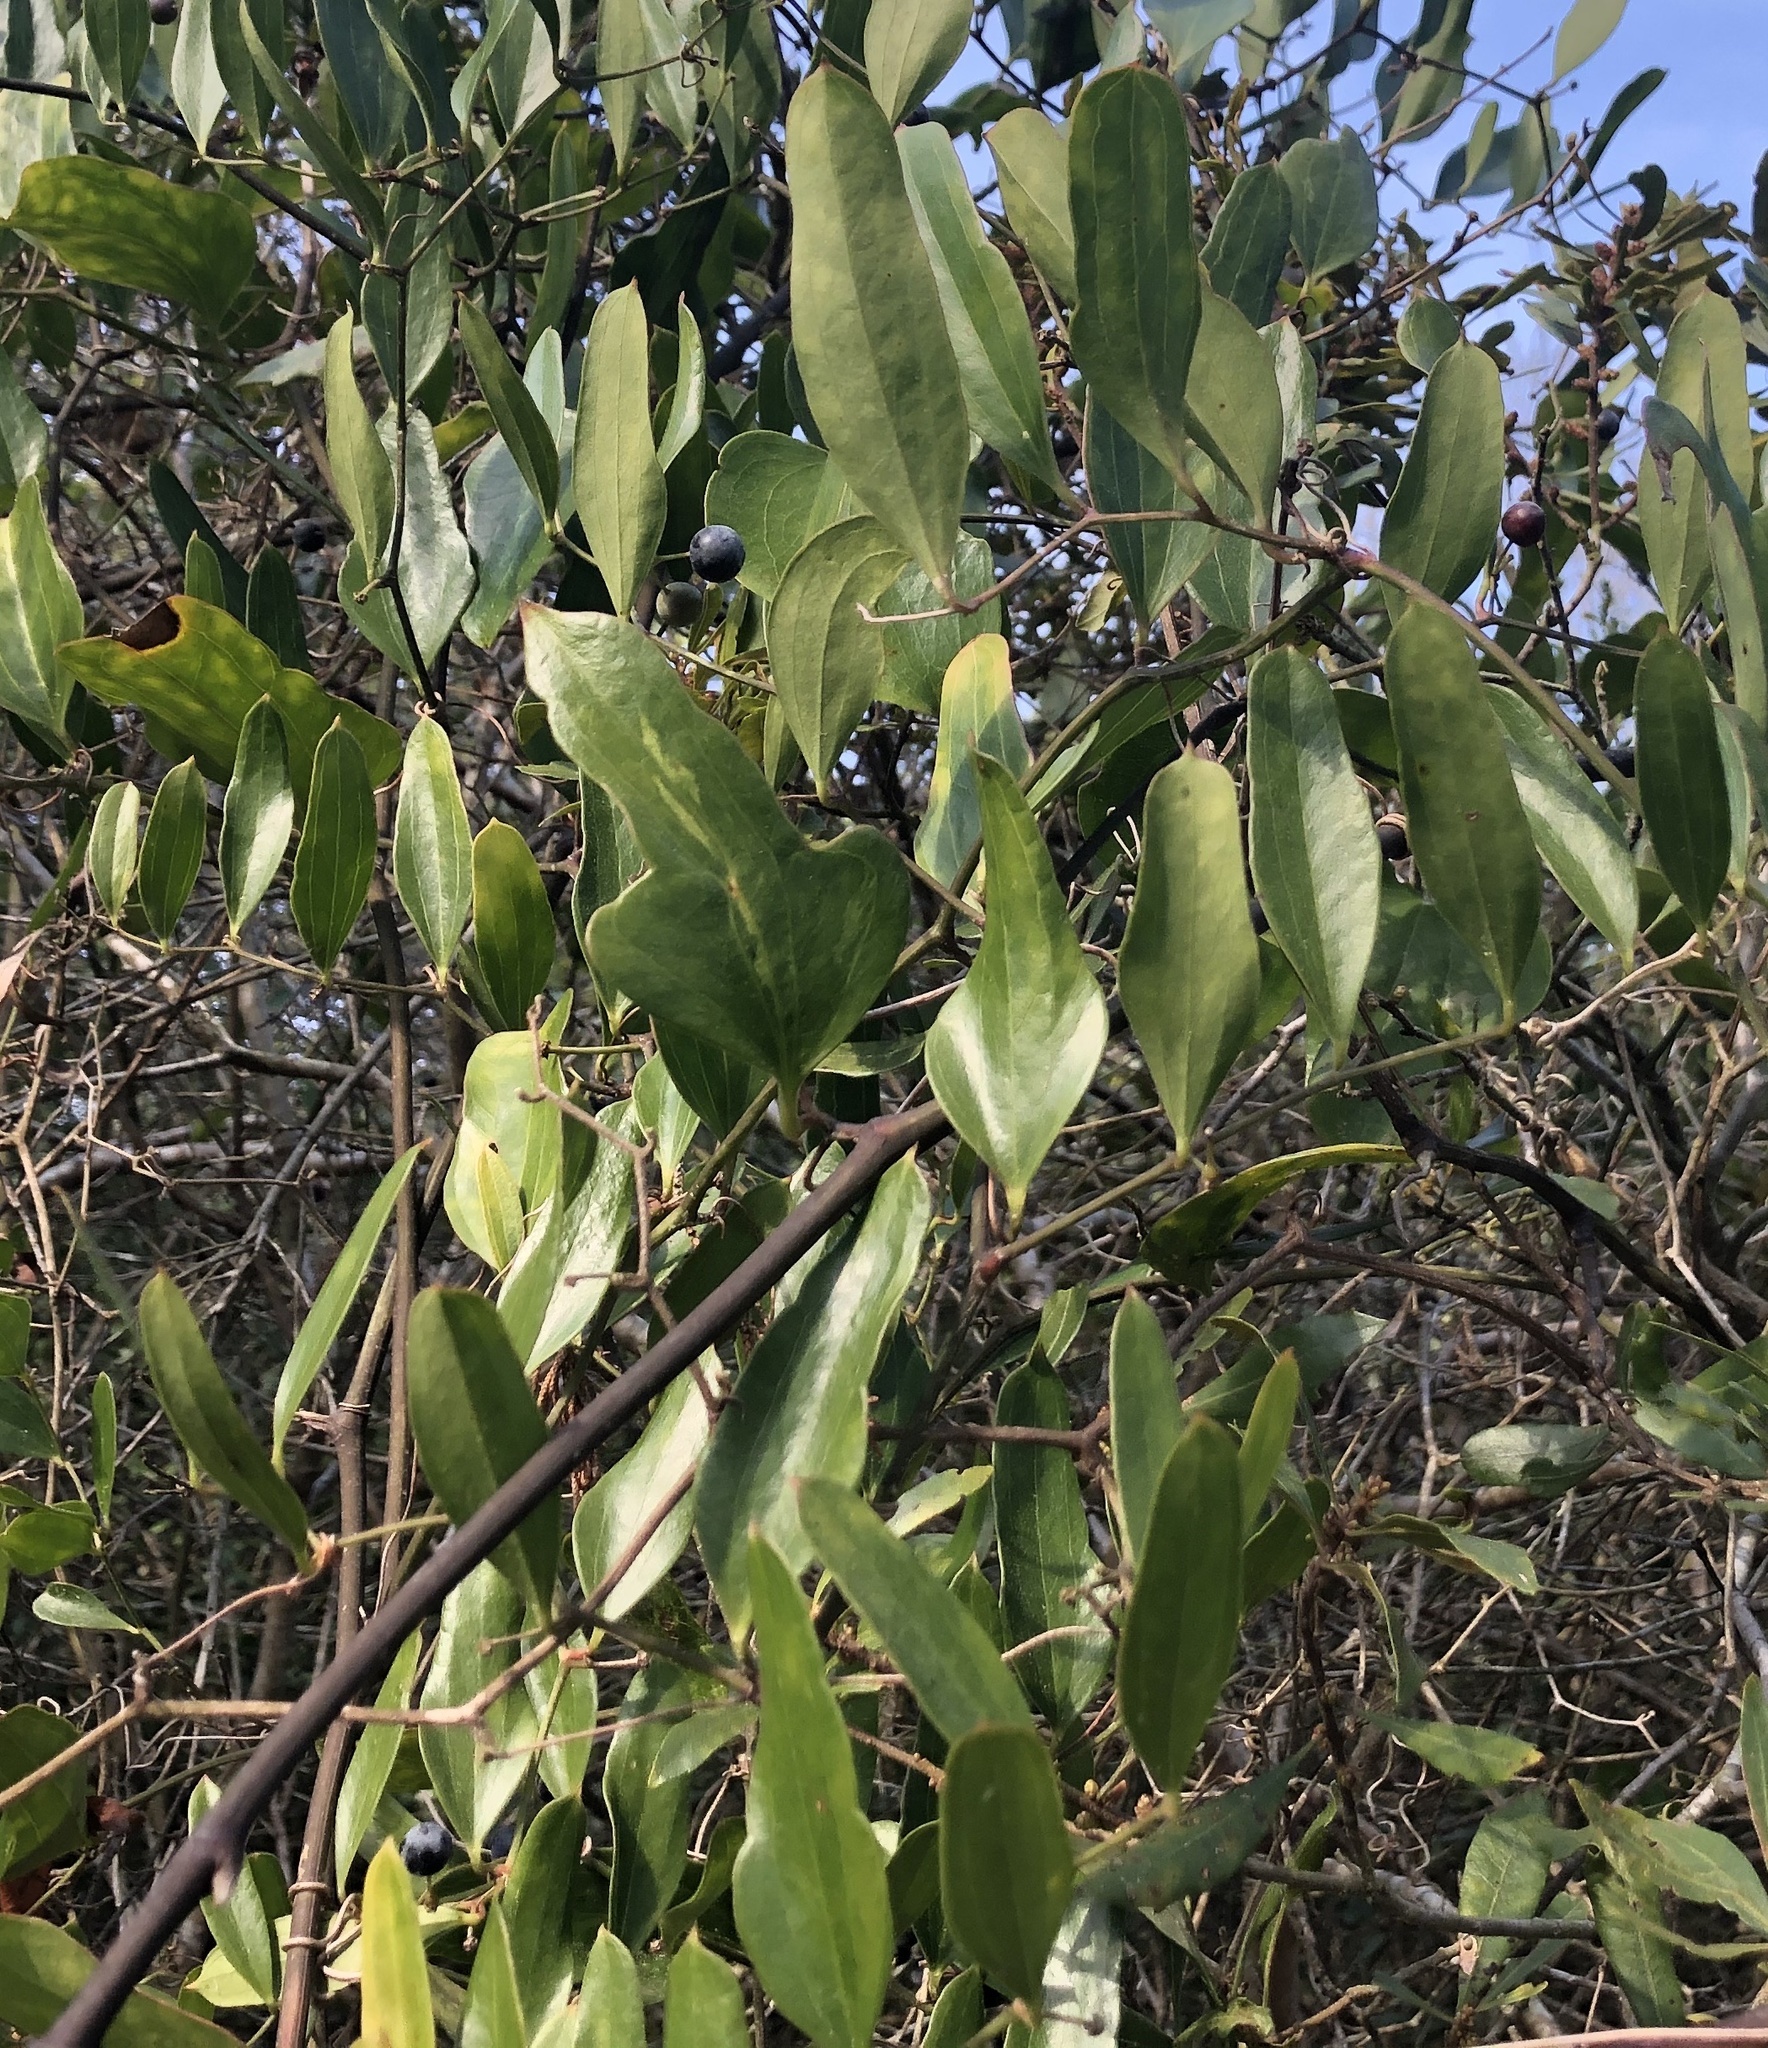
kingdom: Plantae
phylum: Tracheophyta
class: Liliopsida
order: Liliales
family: Smilacaceae
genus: Smilax
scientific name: Smilax auriculata
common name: Wild bamboo
